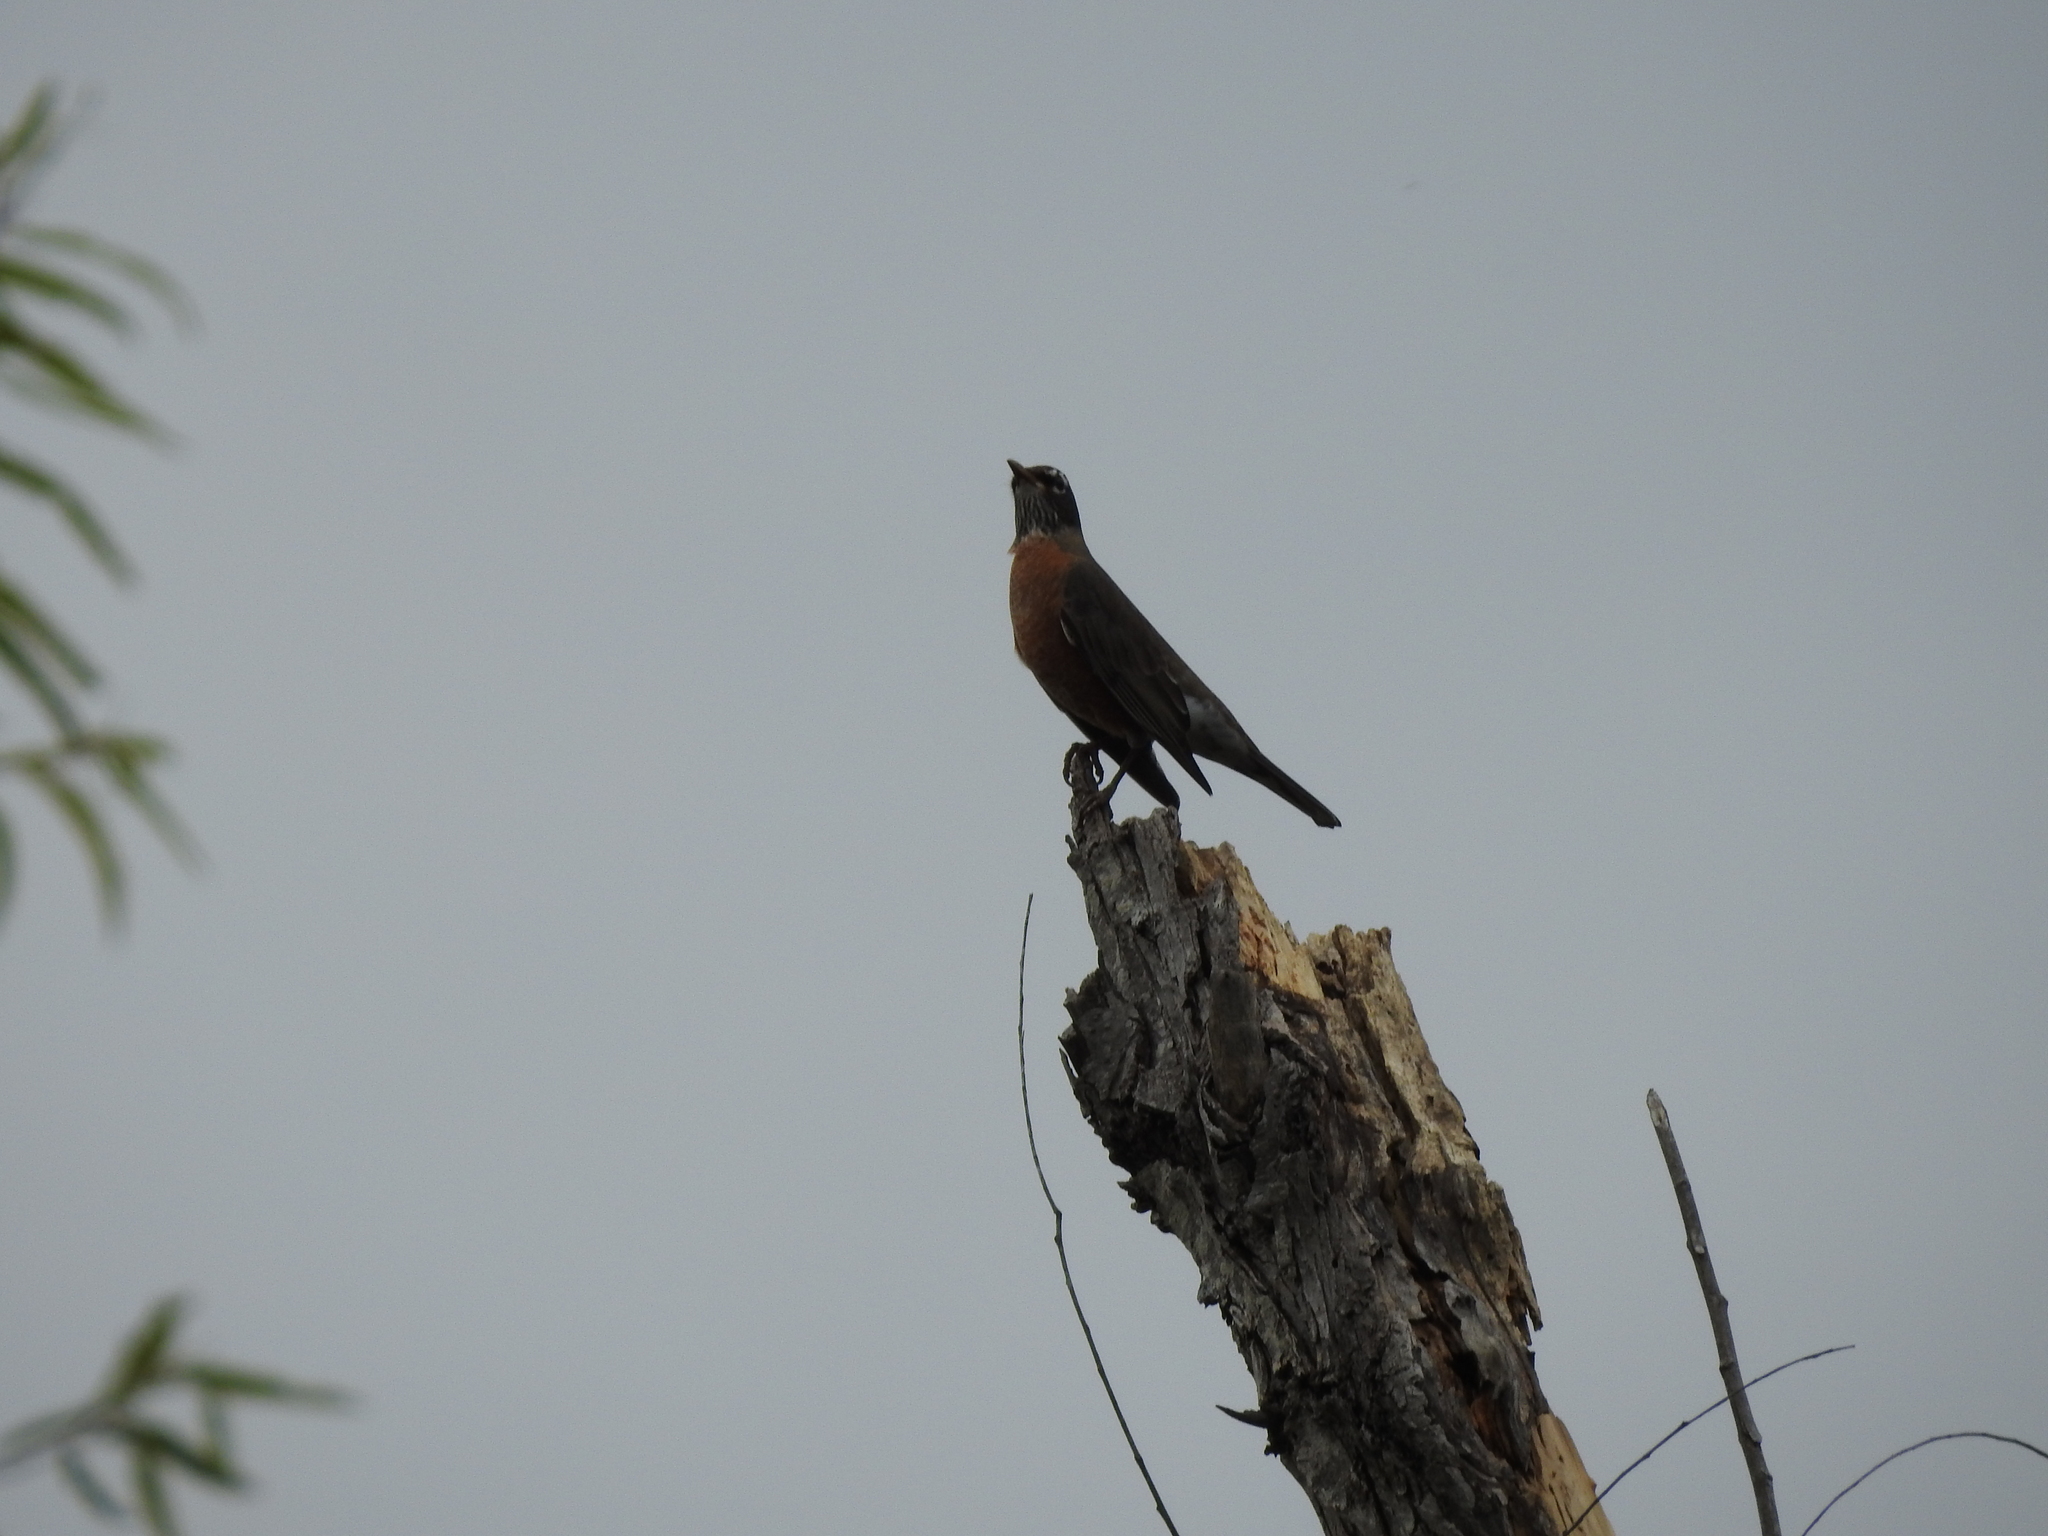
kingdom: Animalia
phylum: Chordata
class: Aves
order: Passeriformes
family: Turdidae
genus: Turdus
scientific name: Turdus migratorius
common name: American robin
